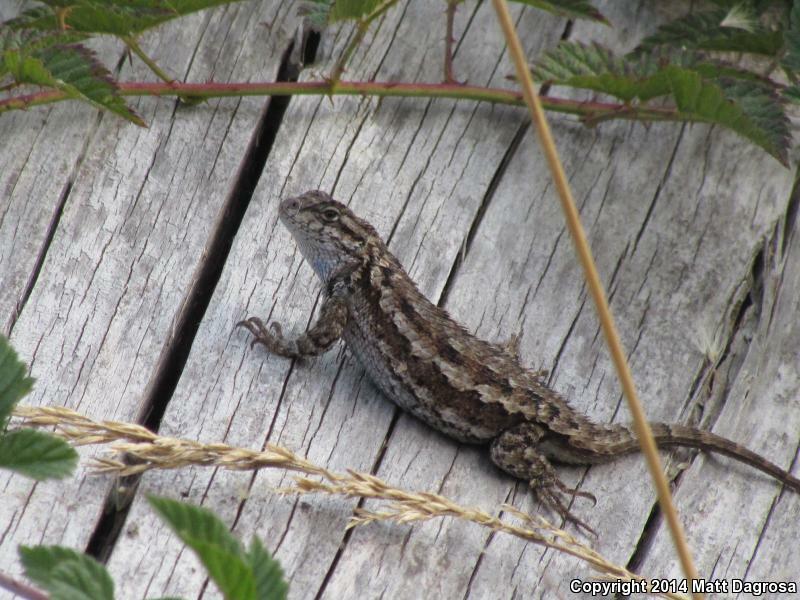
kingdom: Animalia
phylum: Chordata
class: Squamata
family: Phrynosomatidae
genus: Sceloporus
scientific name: Sceloporus occidentalis
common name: Western fence lizard
